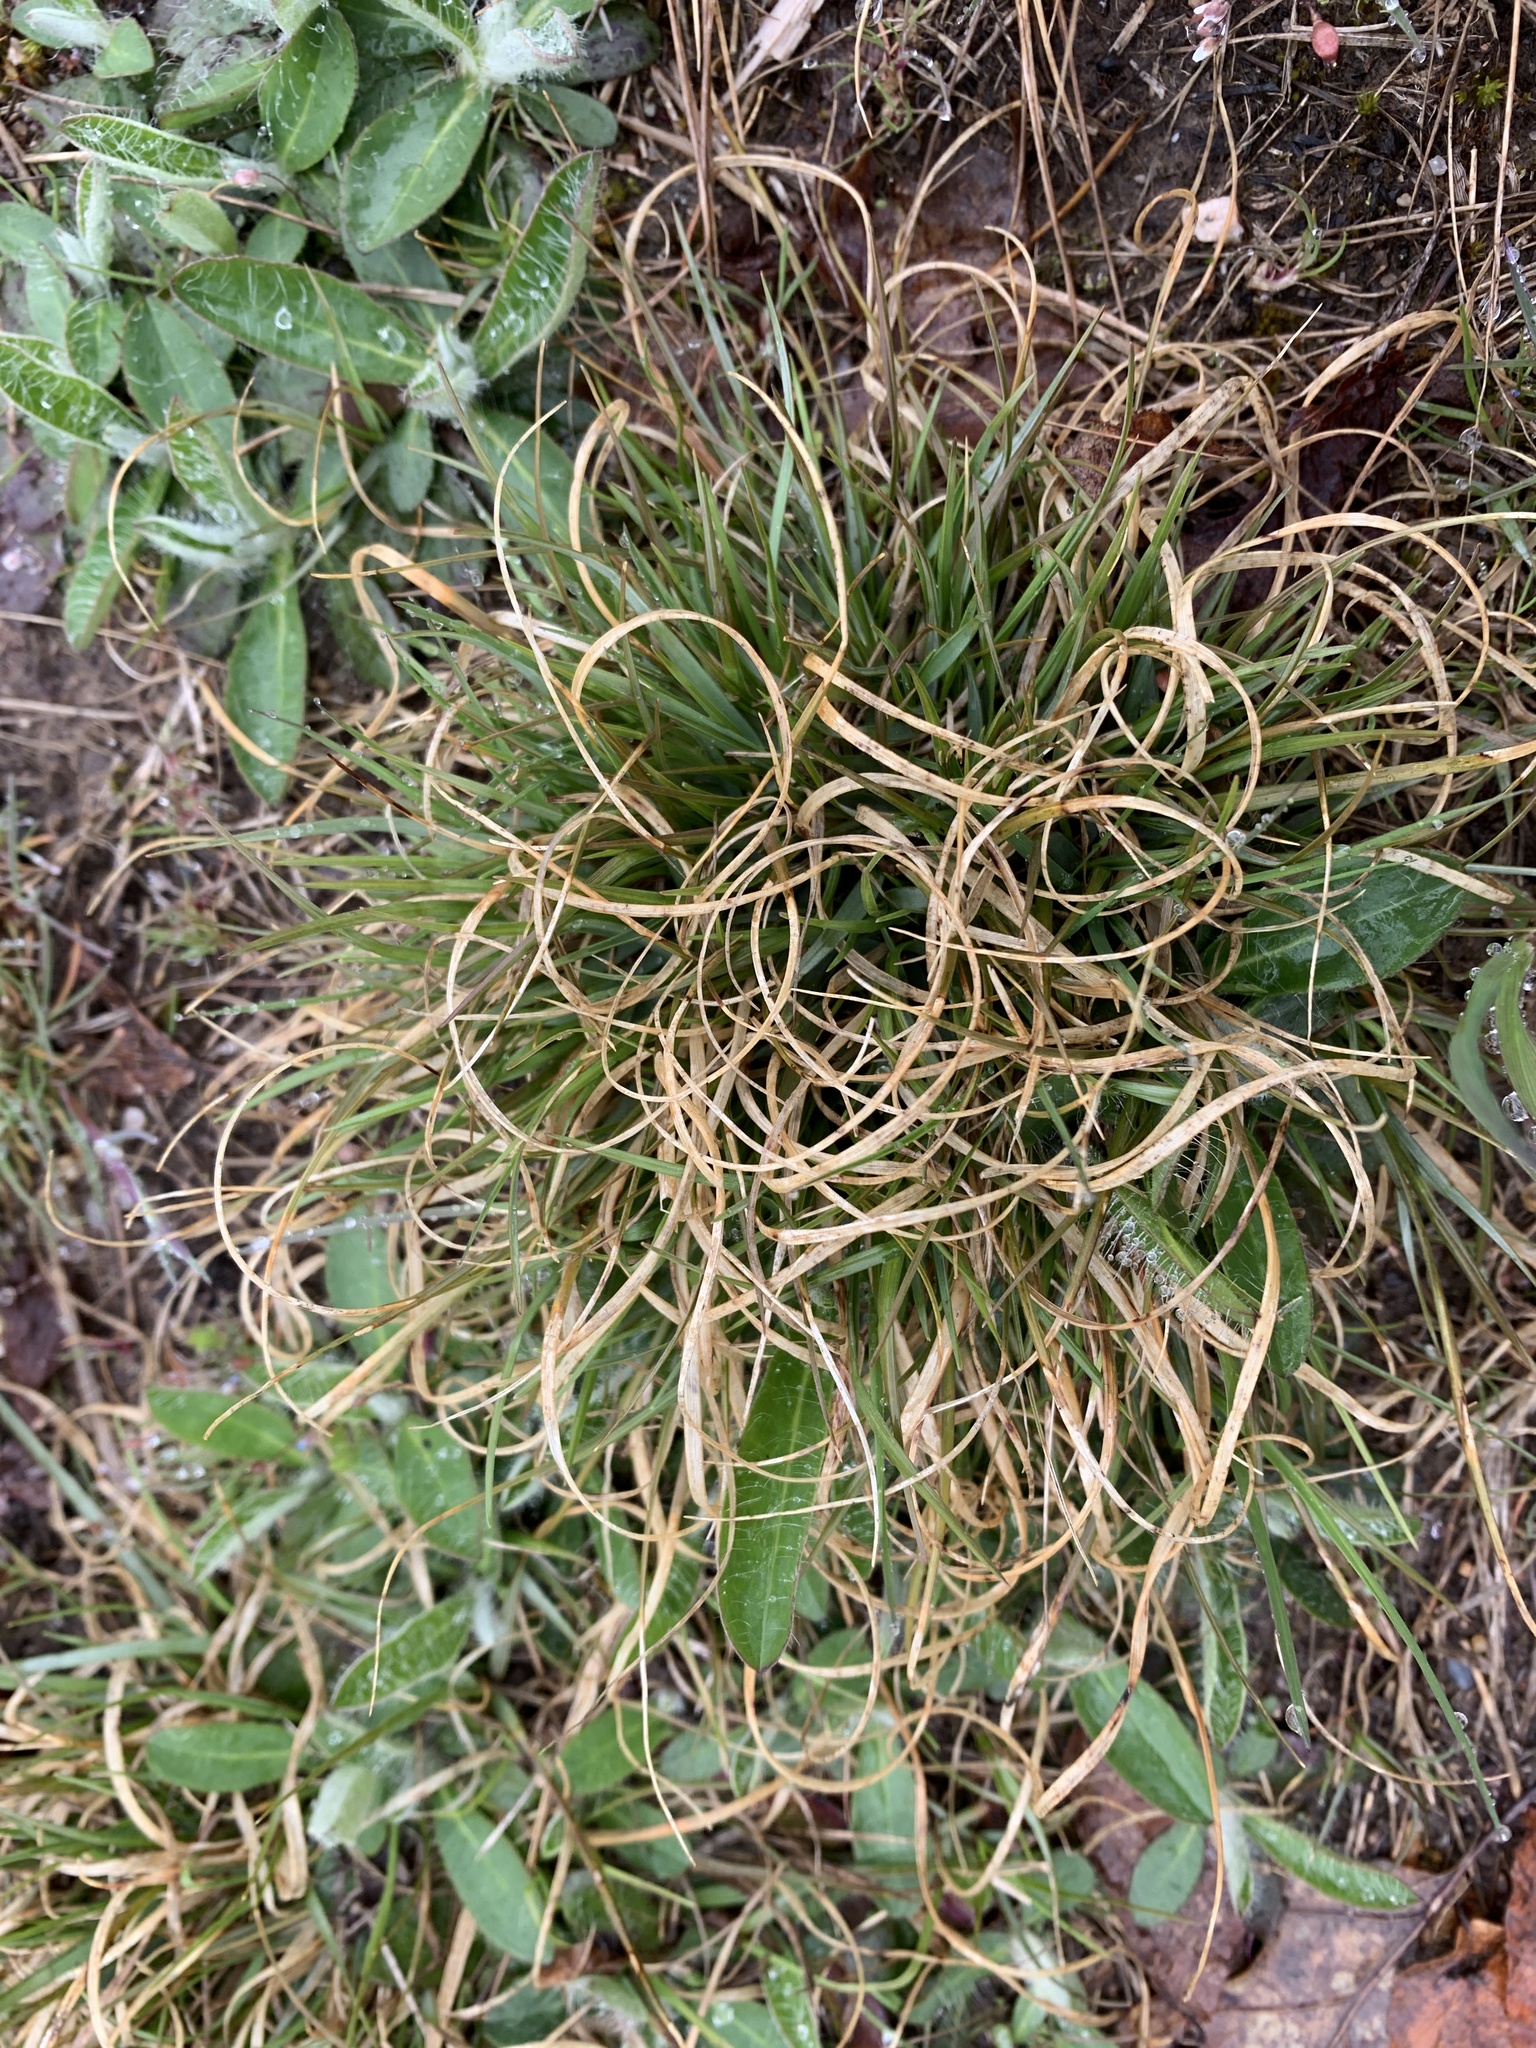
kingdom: Plantae
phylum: Tracheophyta
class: Liliopsida
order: Poales
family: Poaceae
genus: Danthonia
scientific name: Danthonia spicata
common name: Common wild oatgrass
